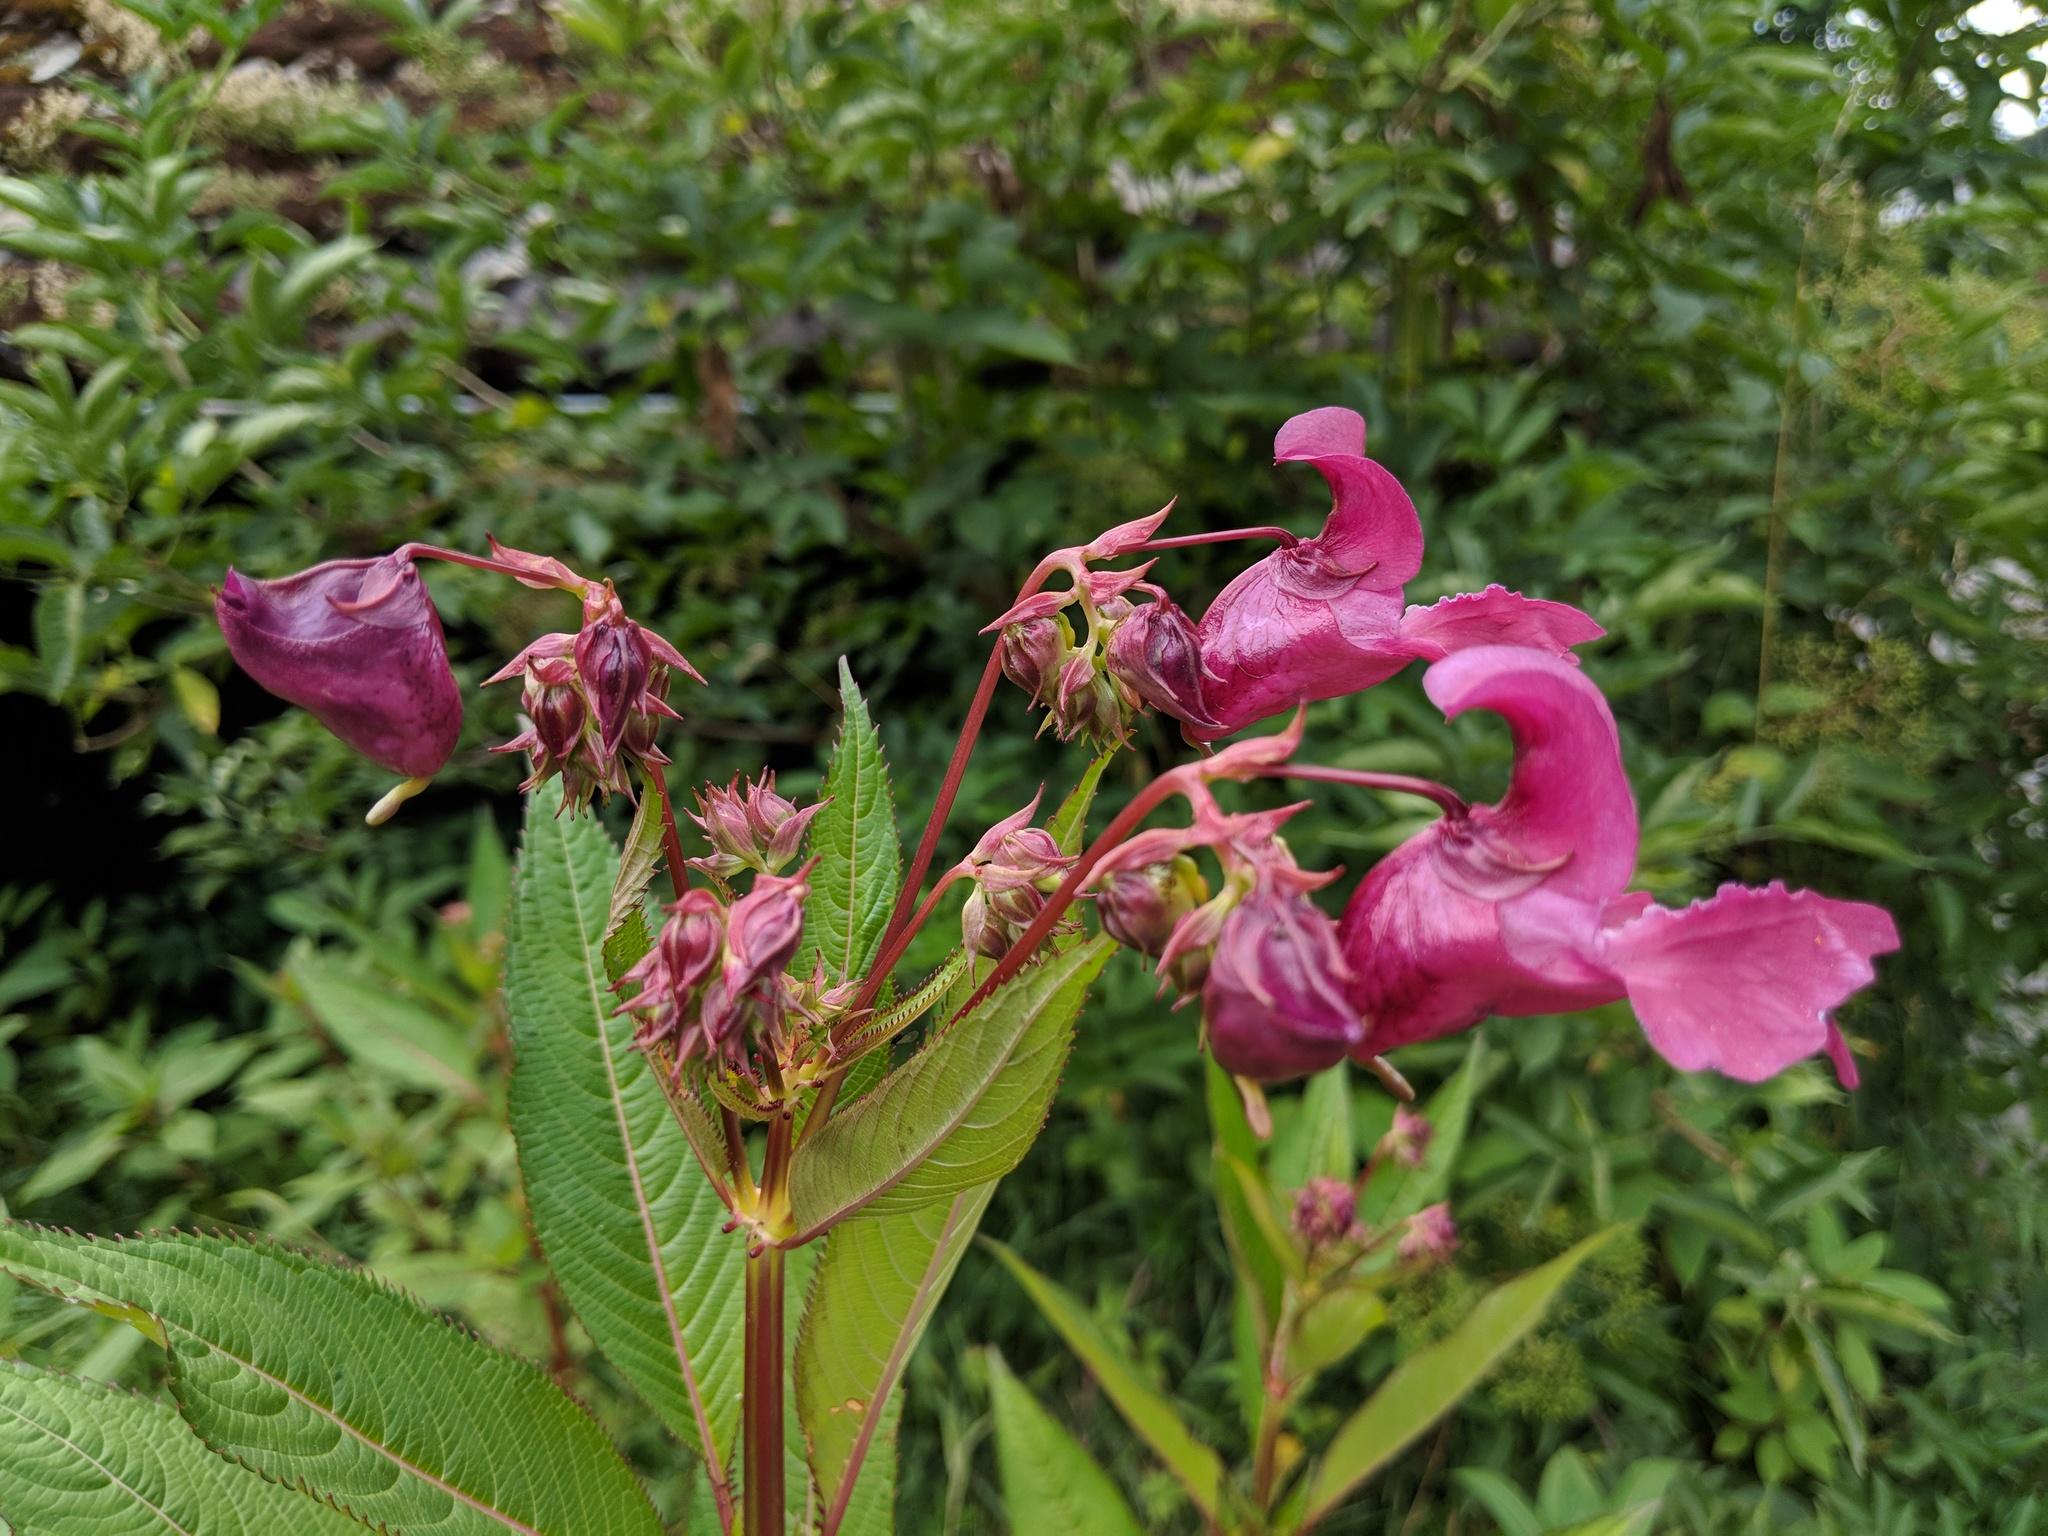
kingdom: Plantae
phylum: Tracheophyta
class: Magnoliopsida
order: Ericales
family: Balsaminaceae
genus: Impatiens
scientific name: Impatiens glandulifera
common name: Himalayan balsam
